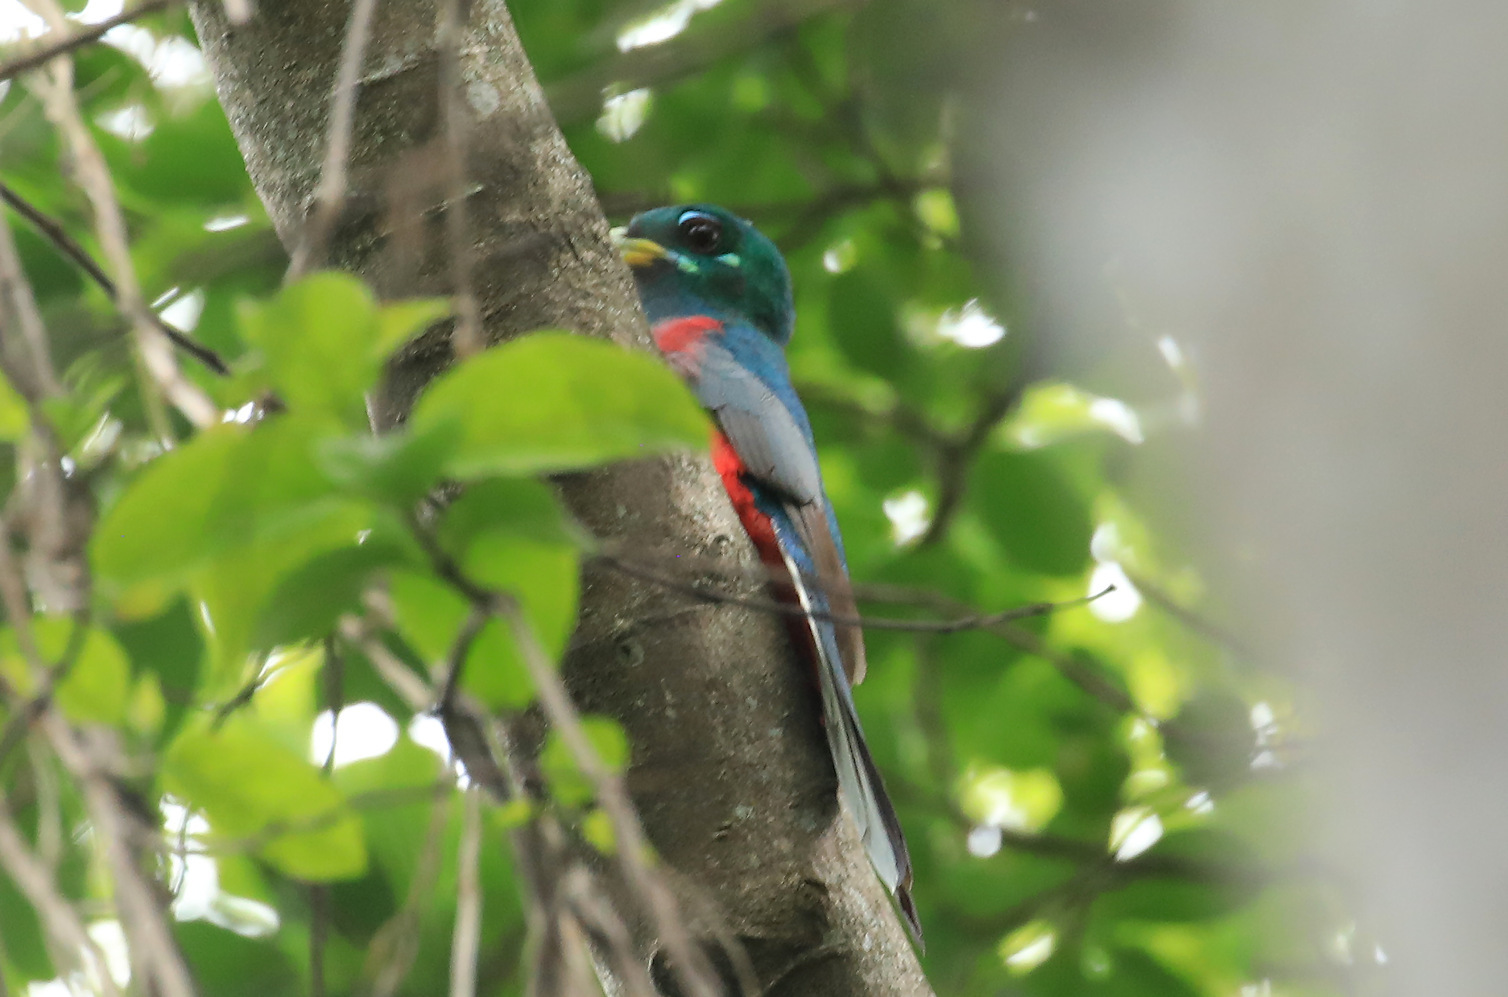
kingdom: Animalia
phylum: Chordata
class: Aves
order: Trogoniformes
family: Trogonidae
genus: Apaloderma
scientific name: Apaloderma narina
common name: Narina trogon
